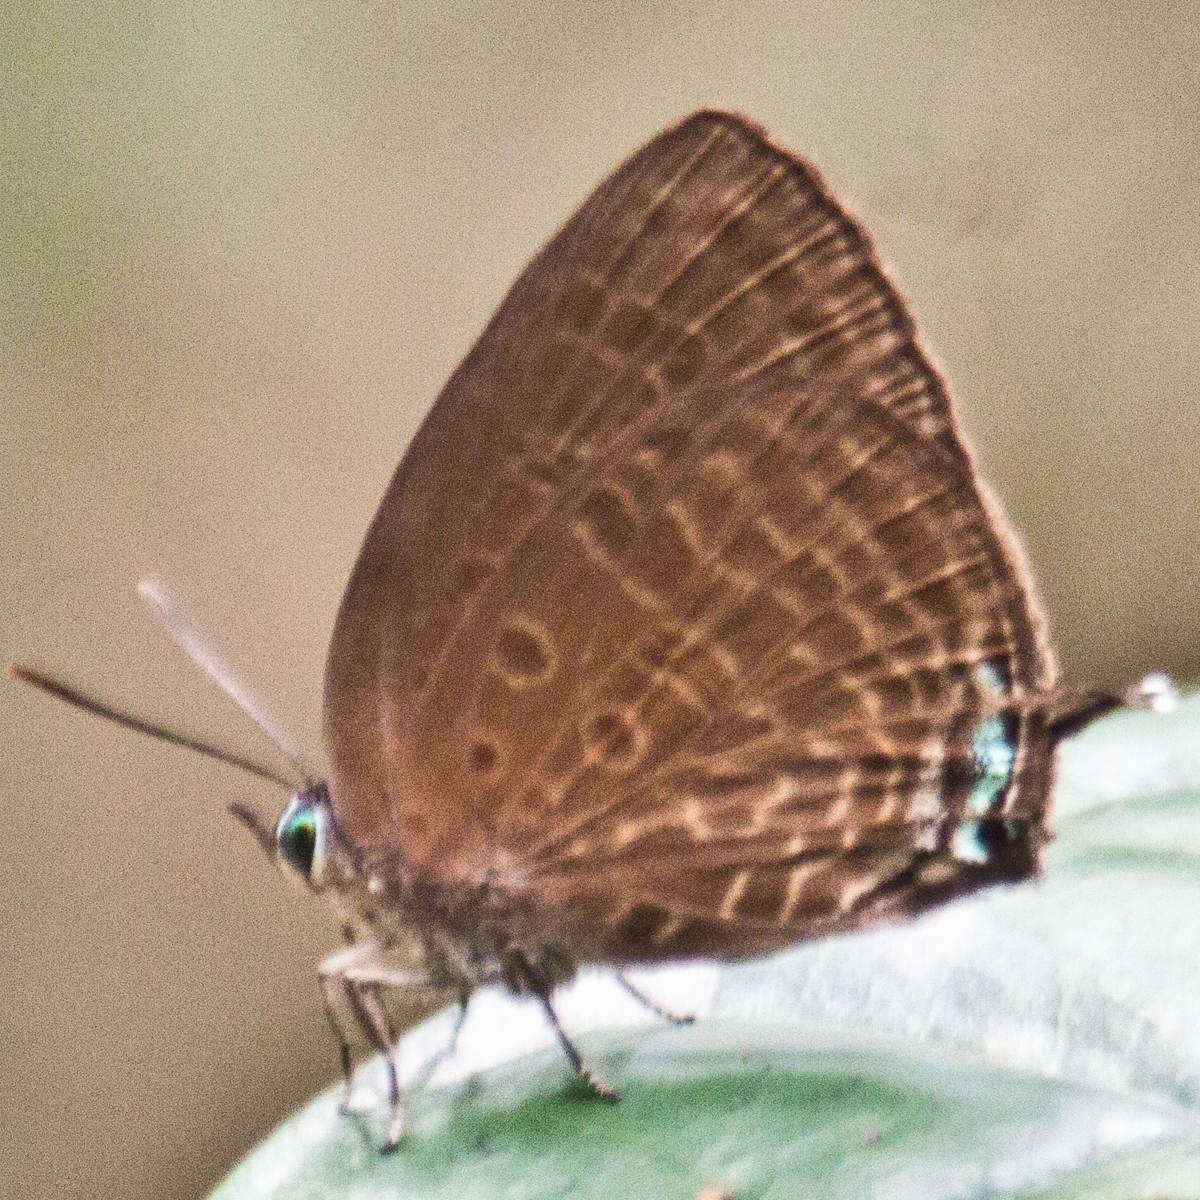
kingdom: Animalia
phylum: Arthropoda
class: Insecta
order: Lepidoptera
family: Lycaenidae
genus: Arhopala
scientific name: Arhopala agrata
